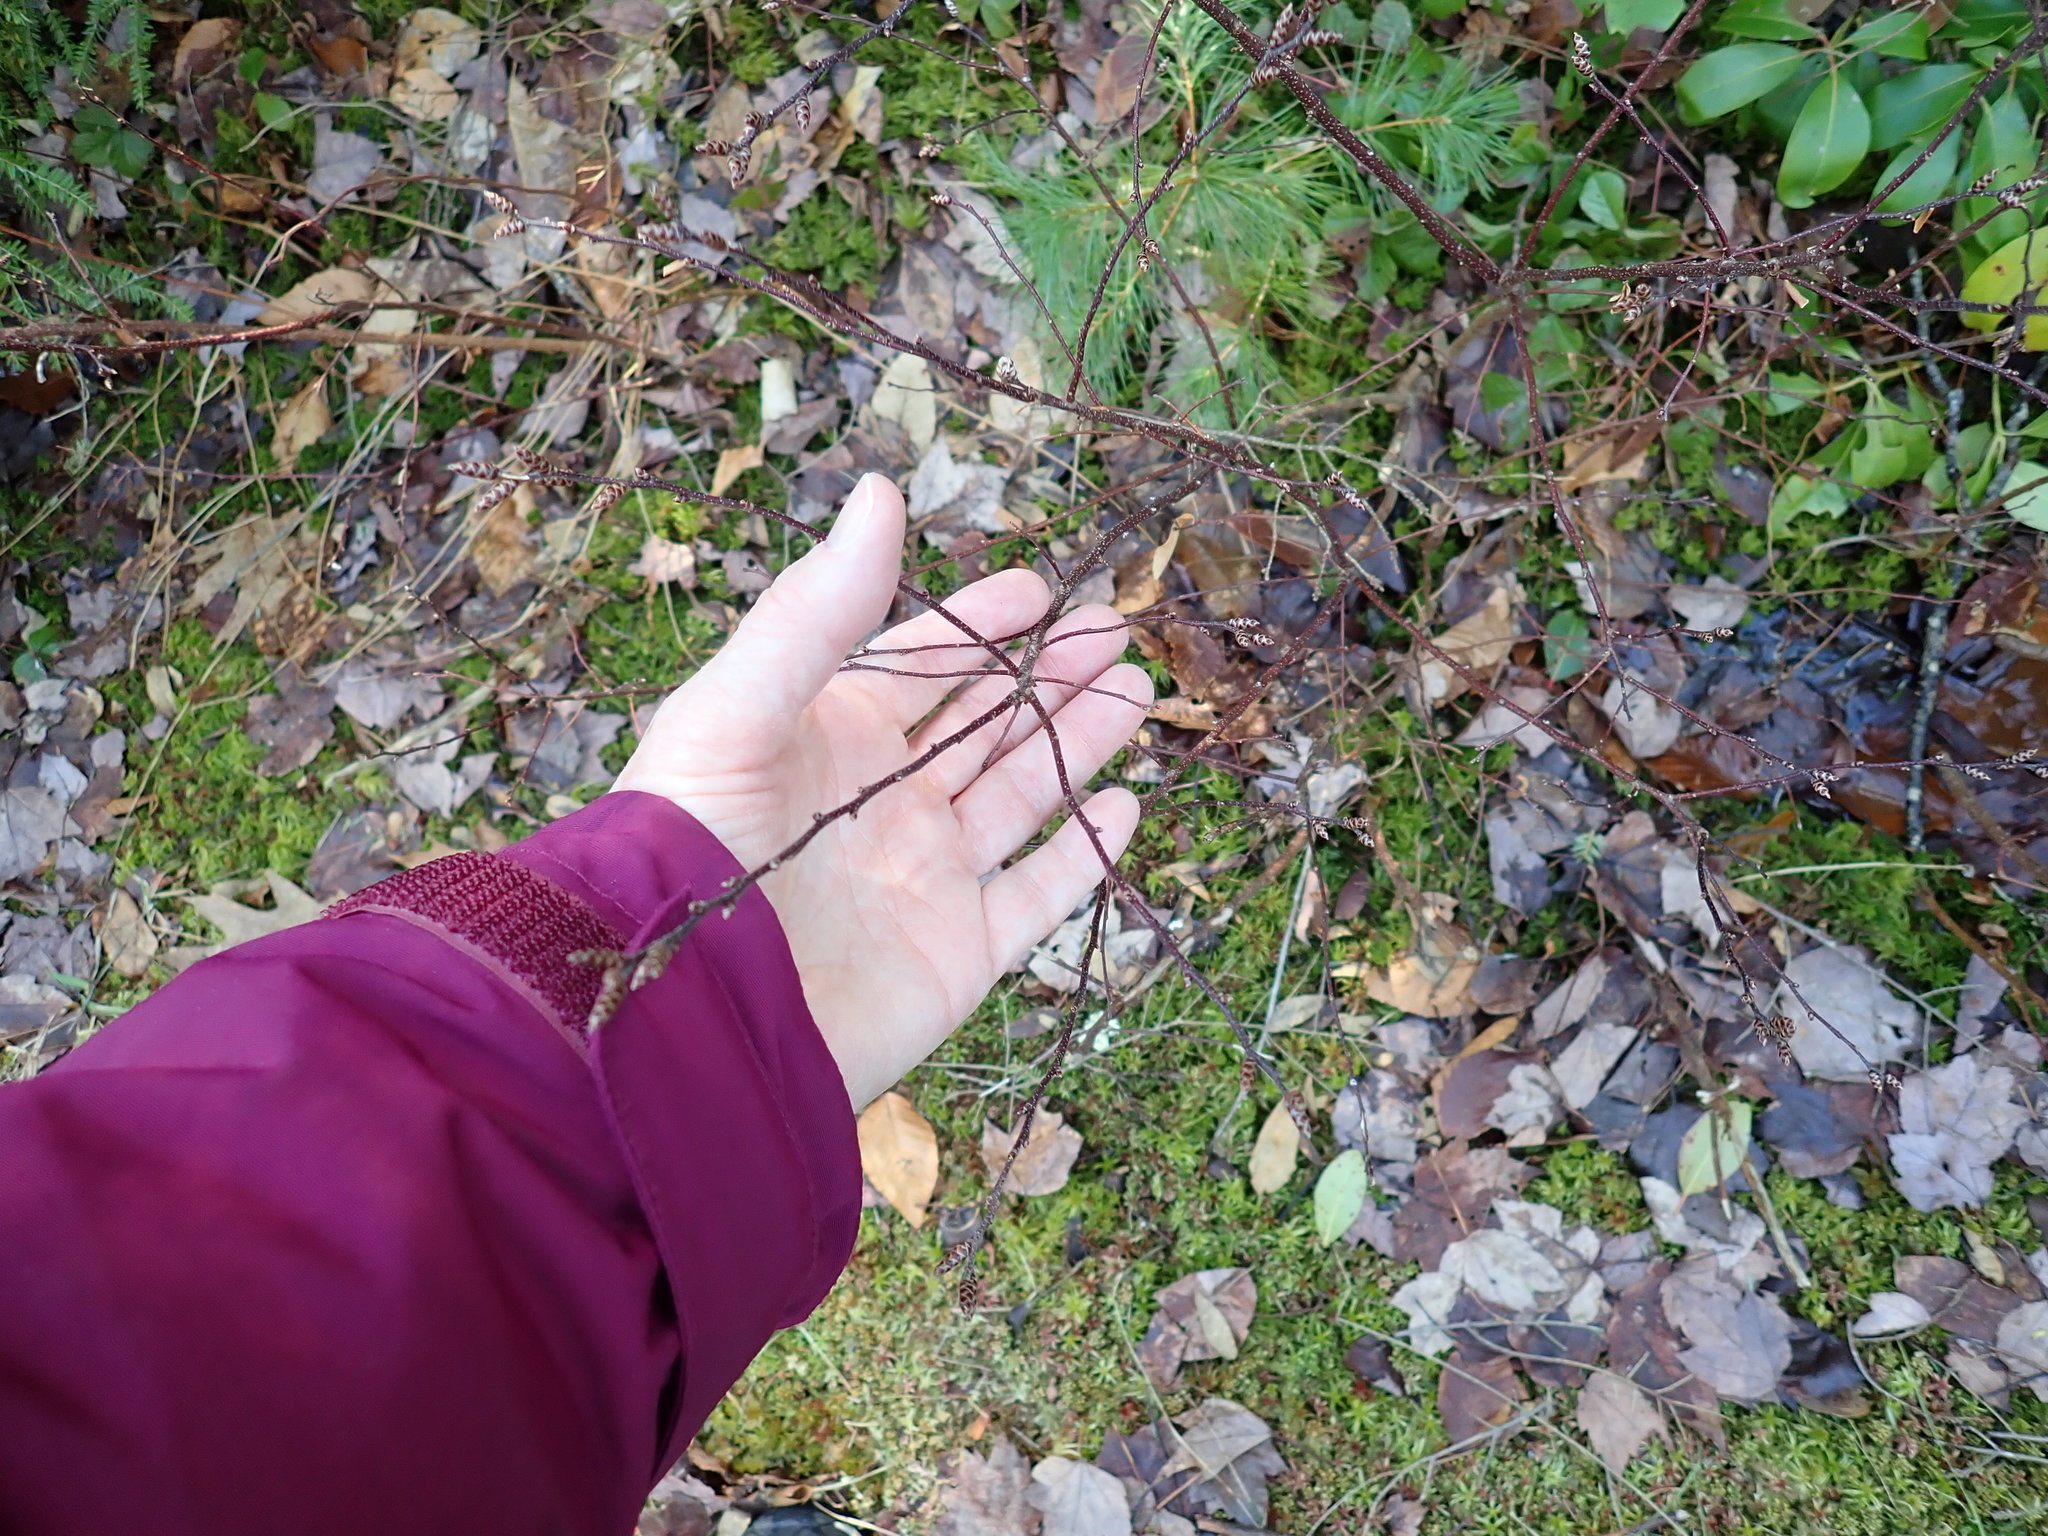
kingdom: Plantae
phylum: Tracheophyta
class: Magnoliopsida
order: Fagales
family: Myricaceae
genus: Myrica
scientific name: Myrica gale
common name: Sweet gale
